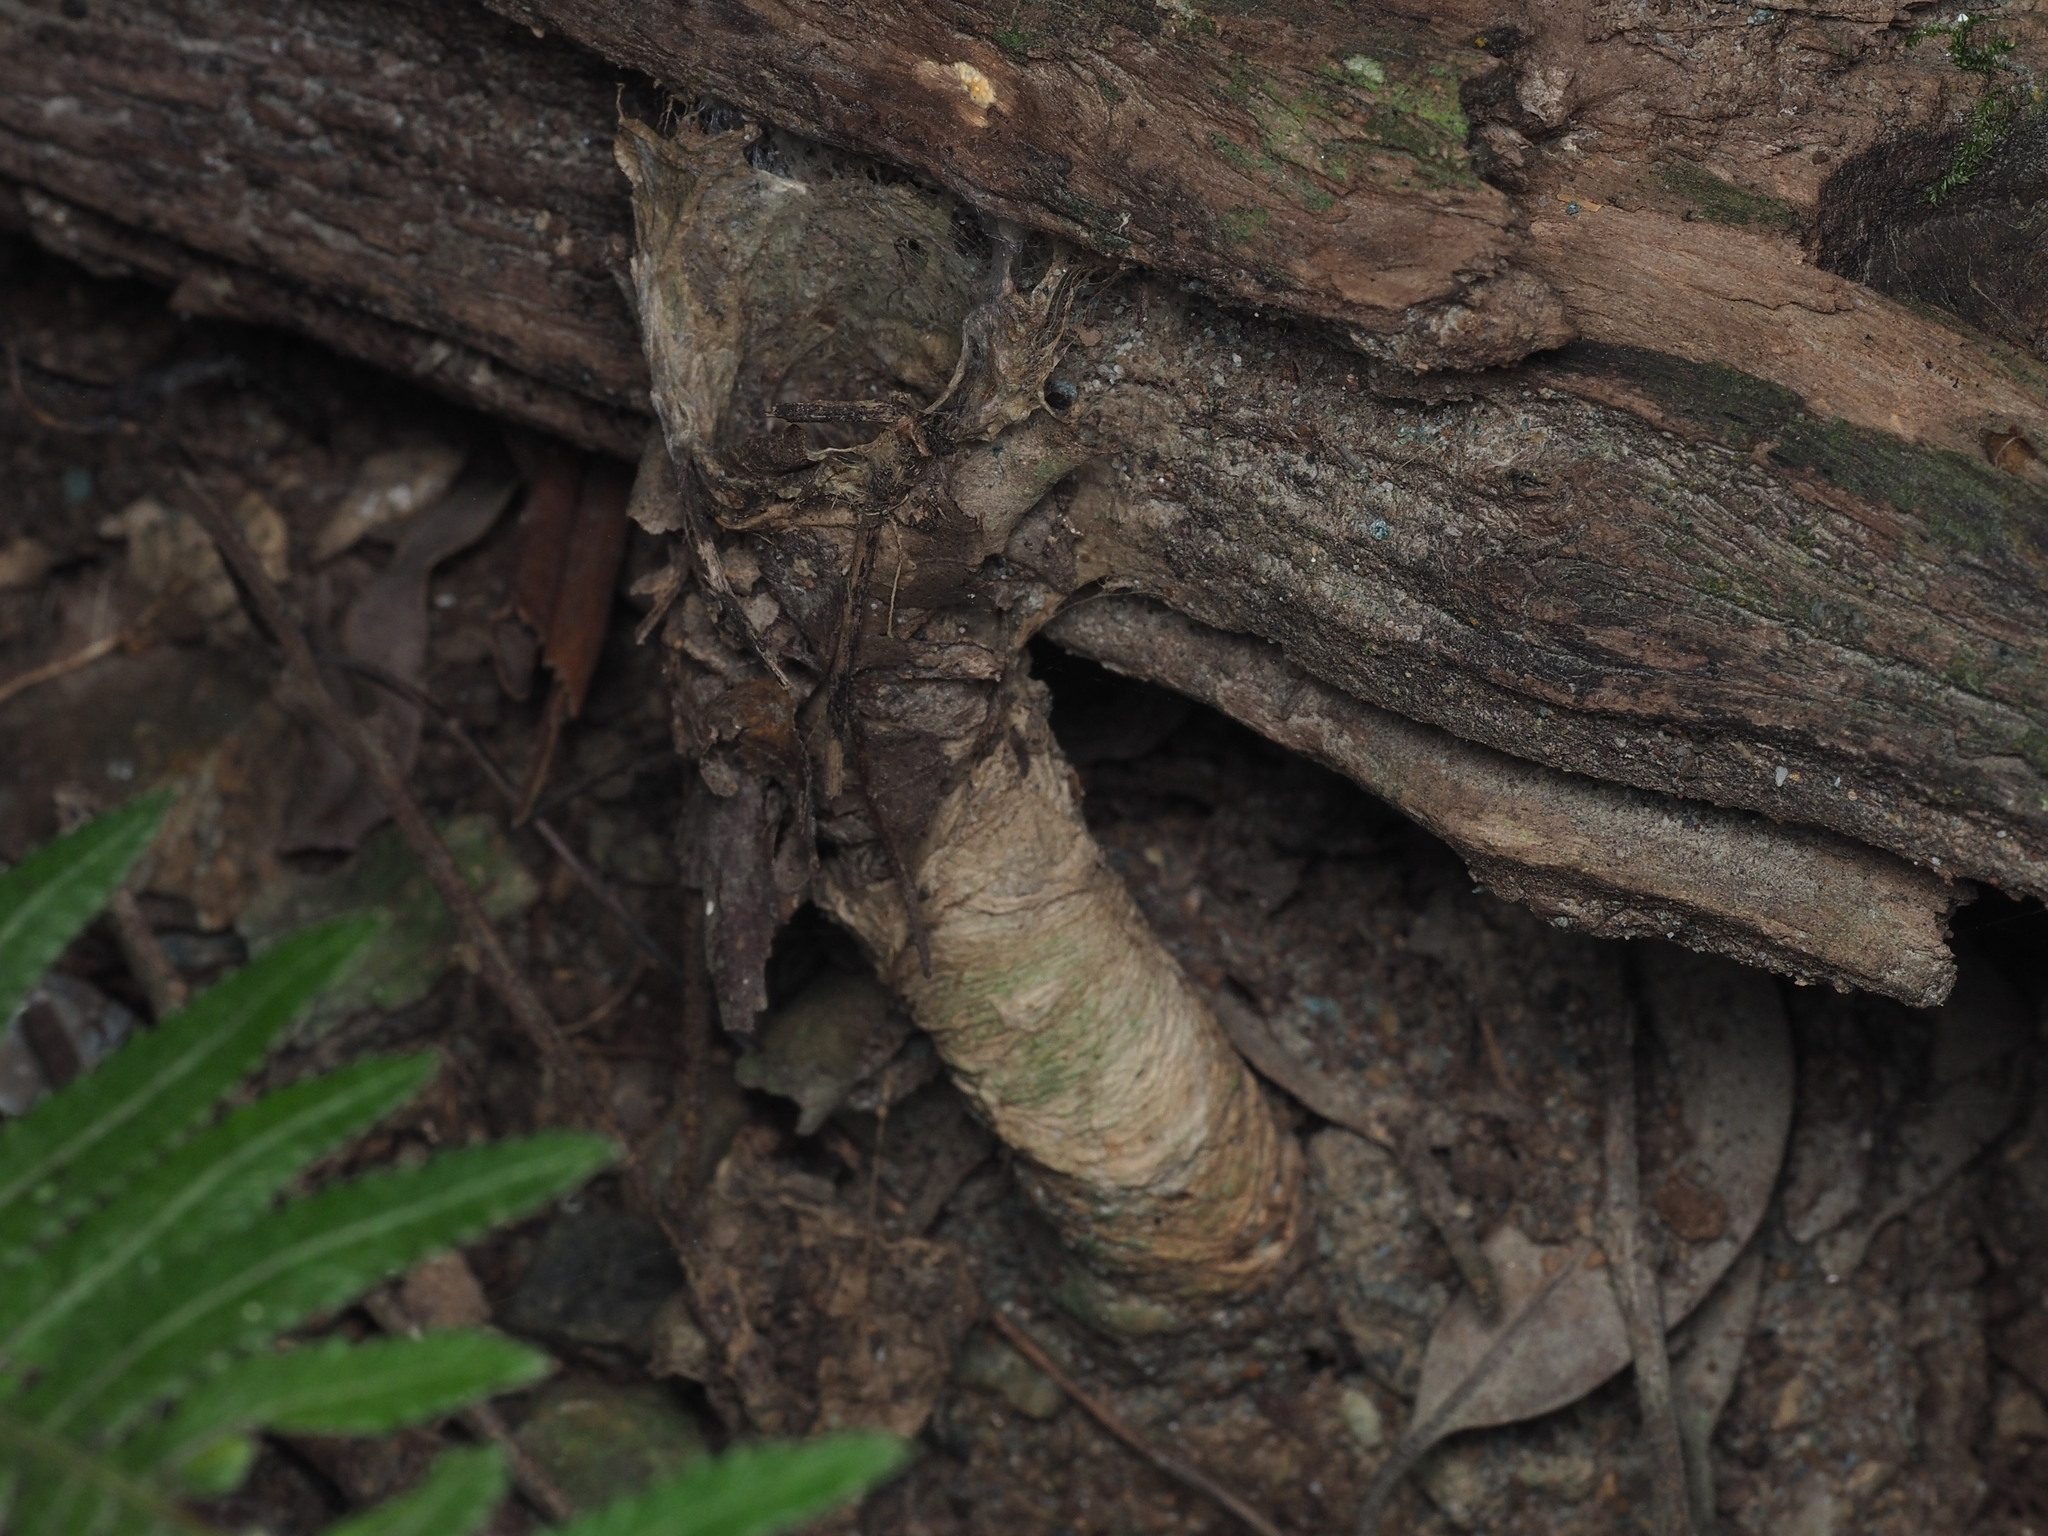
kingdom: Animalia
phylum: Arthropoda
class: Arachnida
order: Araneae
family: Idiopidae
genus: Arbanitis
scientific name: Arbanitis
